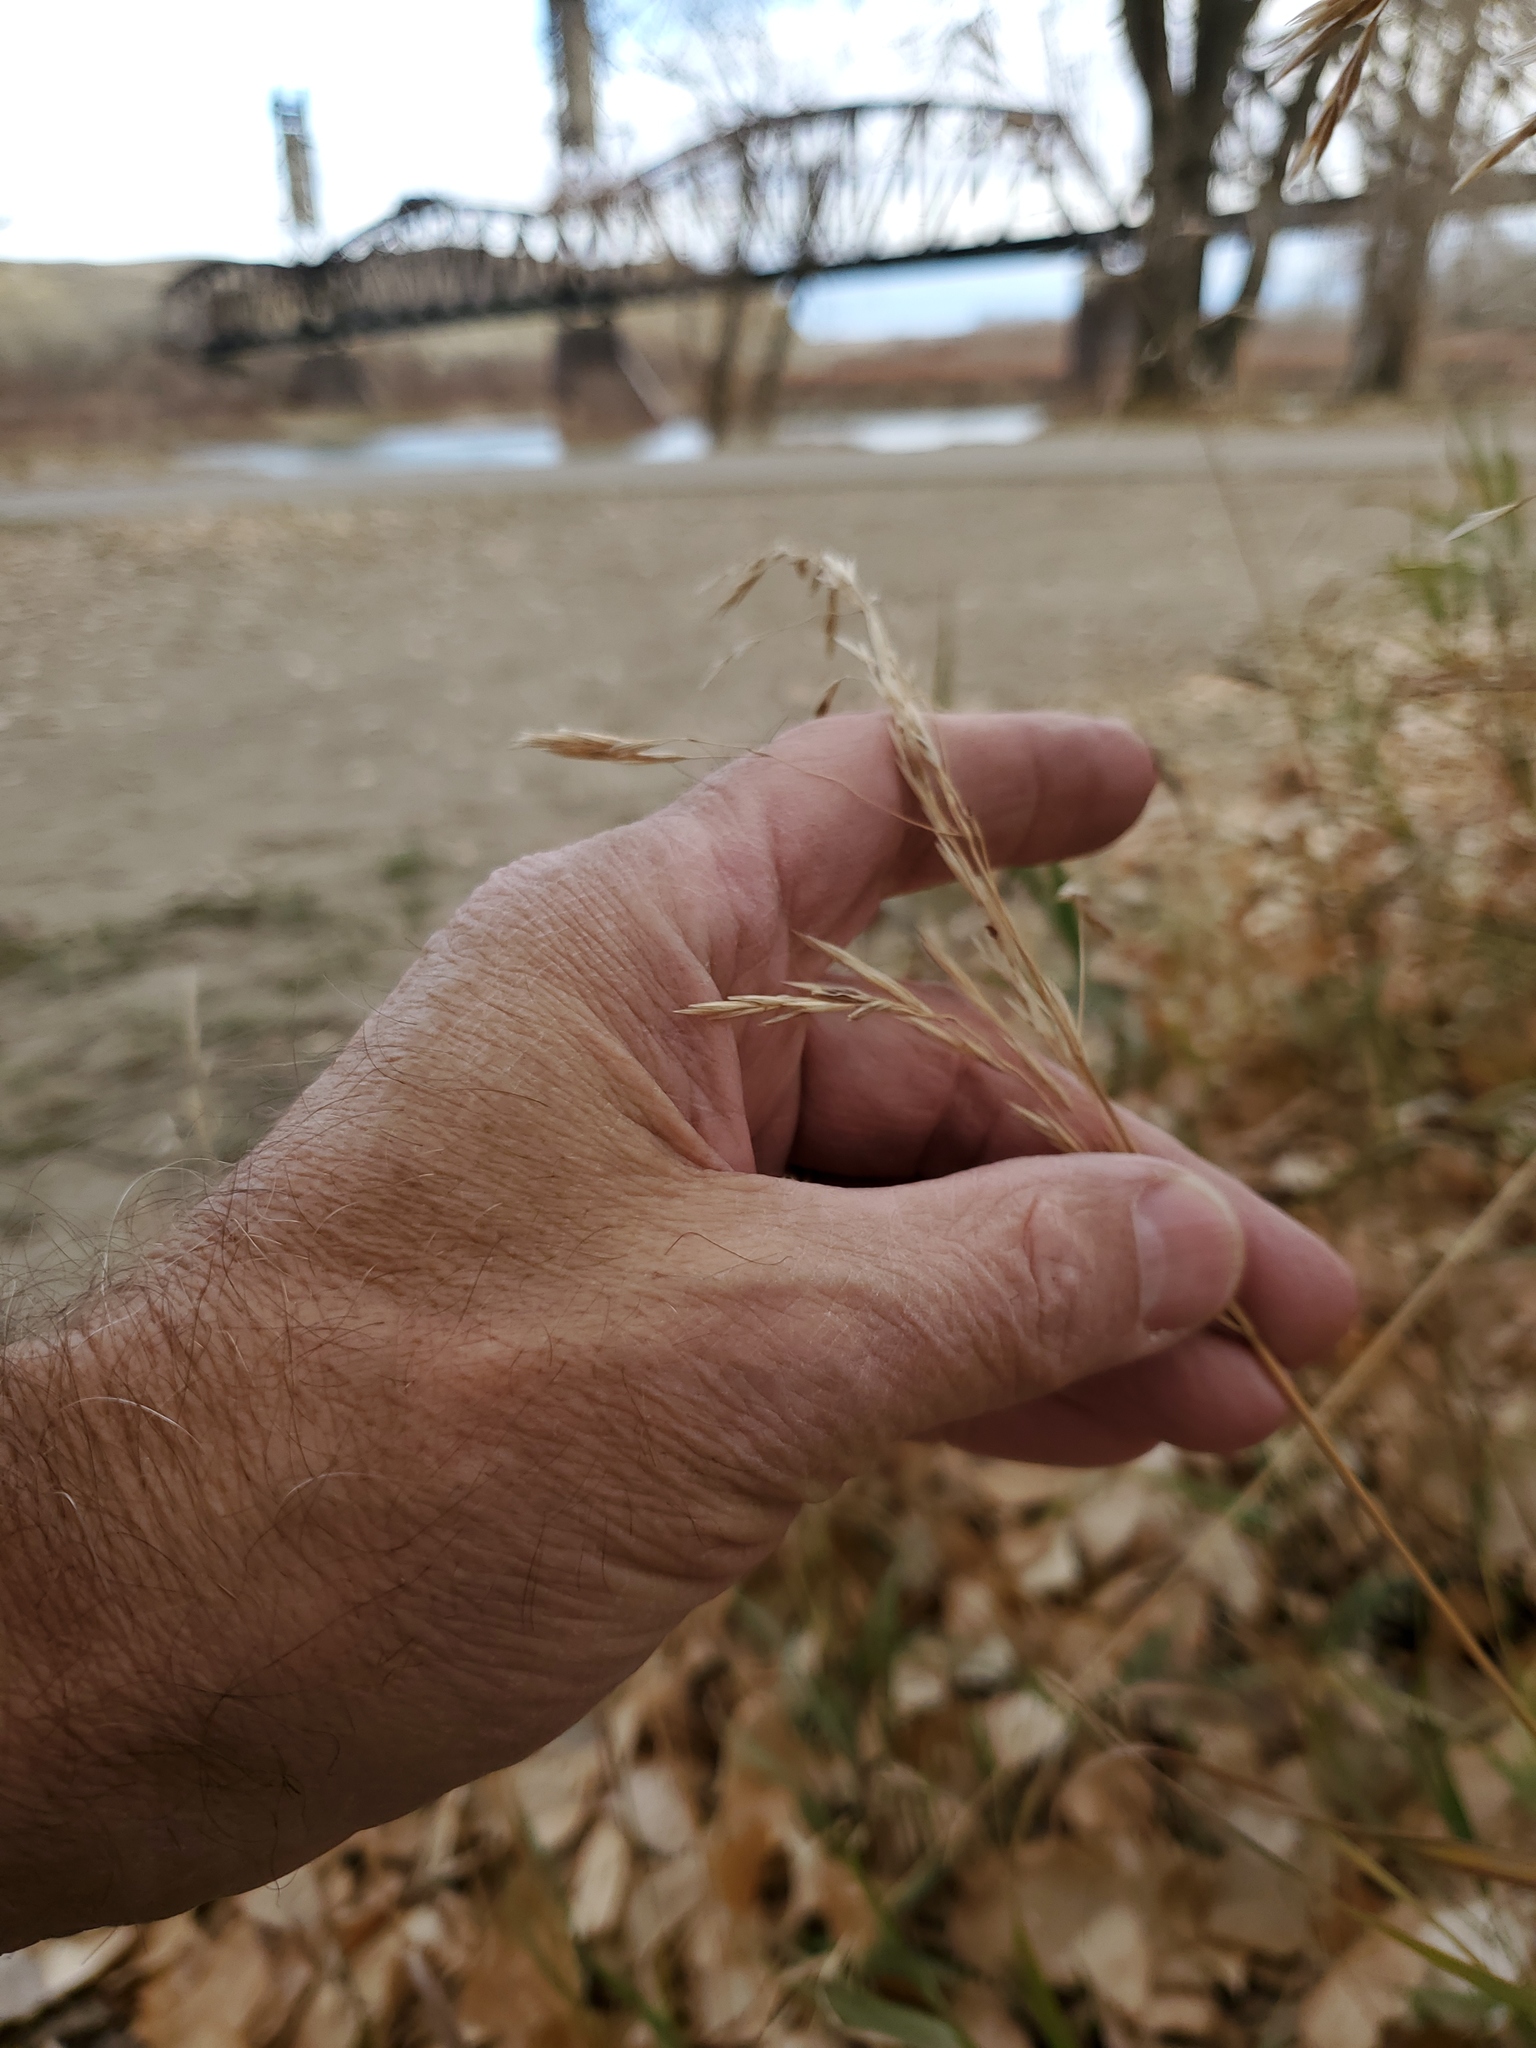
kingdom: Plantae
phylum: Tracheophyta
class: Liliopsida
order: Poales
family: Poaceae
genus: Bromus
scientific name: Bromus inermis
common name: Smooth brome
